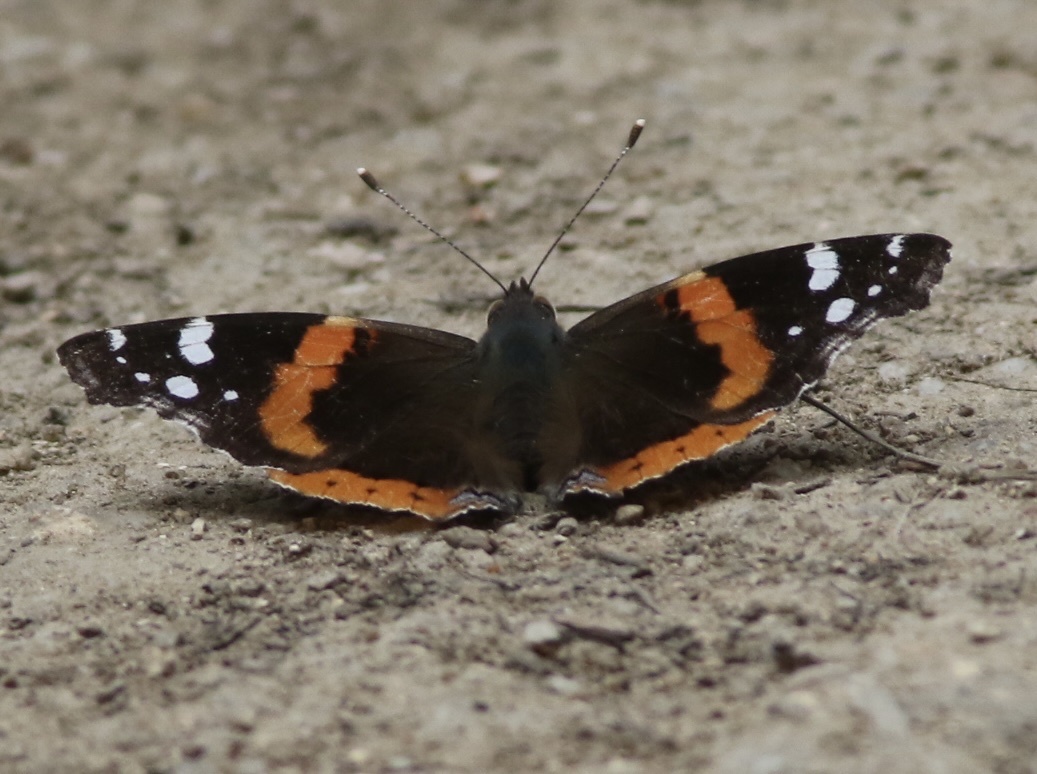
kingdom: Animalia
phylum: Arthropoda
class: Insecta
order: Lepidoptera
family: Nymphalidae
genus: Vanessa
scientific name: Vanessa atalanta
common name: Red admiral
